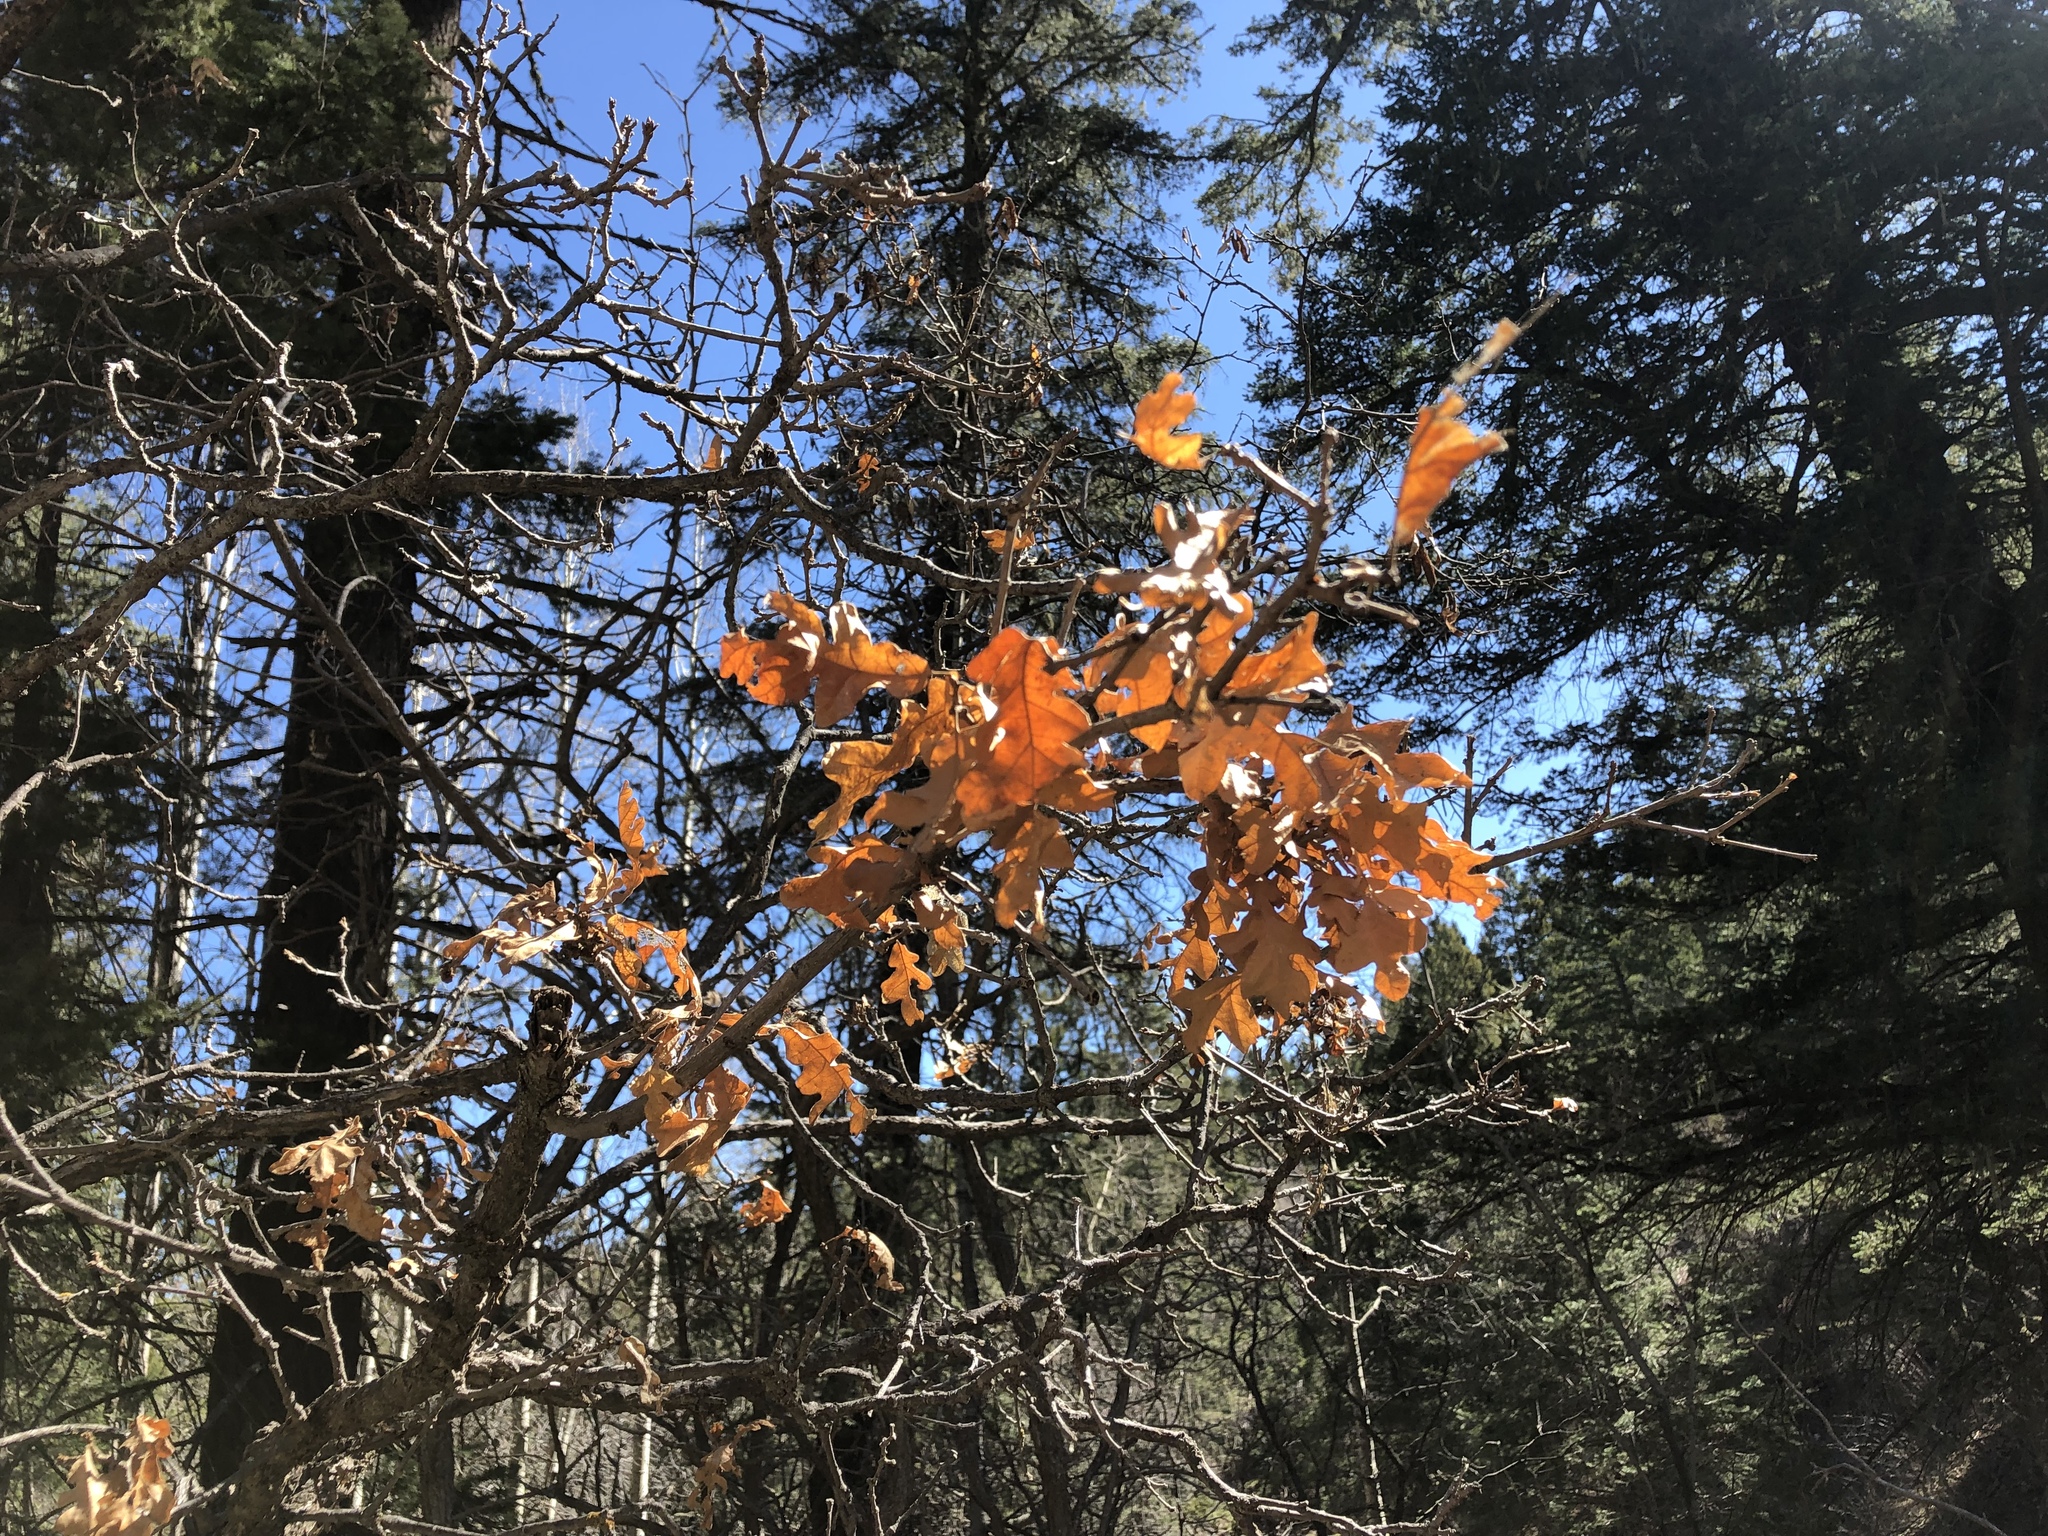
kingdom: Plantae
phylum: Tracheophyta
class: Magnoliopsida
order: Fagales
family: Fagaceae
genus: Quercus
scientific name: Quercus gambelii
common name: Gambel oak
